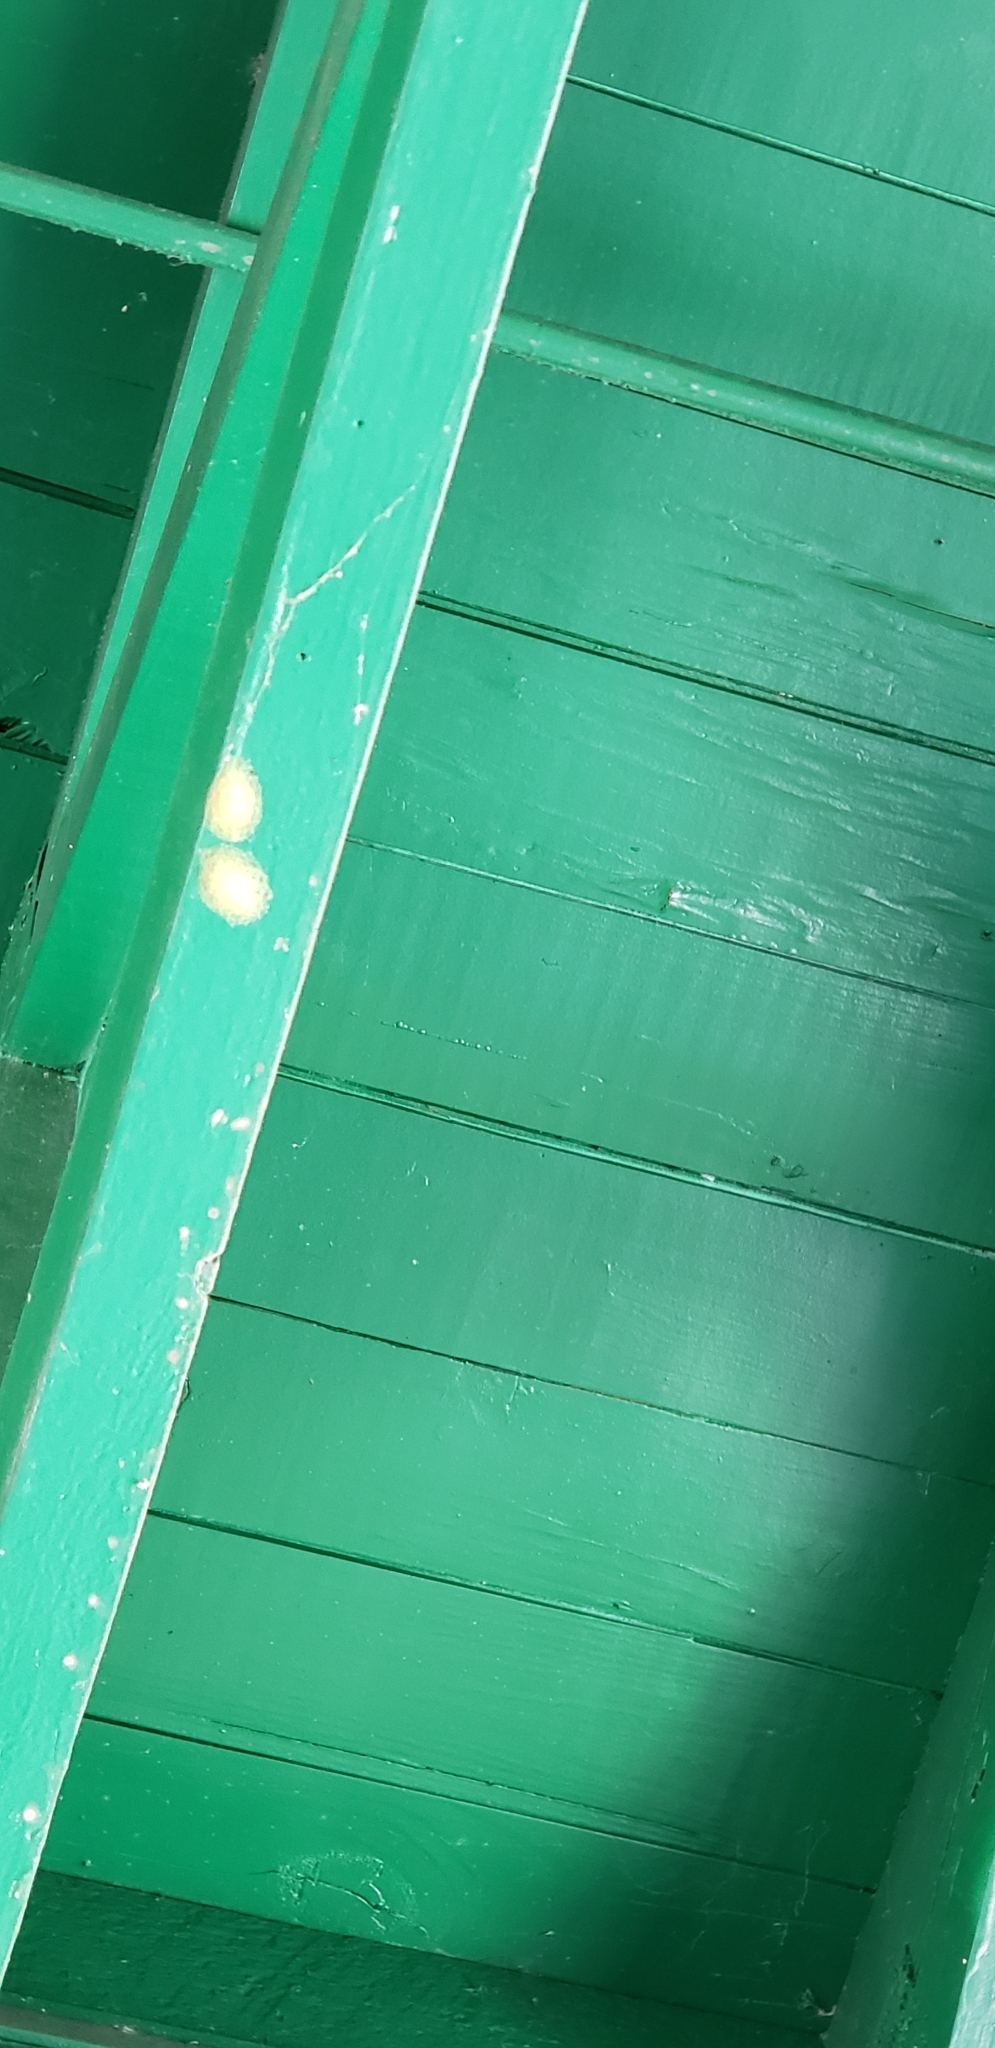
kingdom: Animalia
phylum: Arthropoda
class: Arachnida
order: Araneae
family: Araneidae
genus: Gasteracantha
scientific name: Gasteracantha cancriformis
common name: Orb weavers
